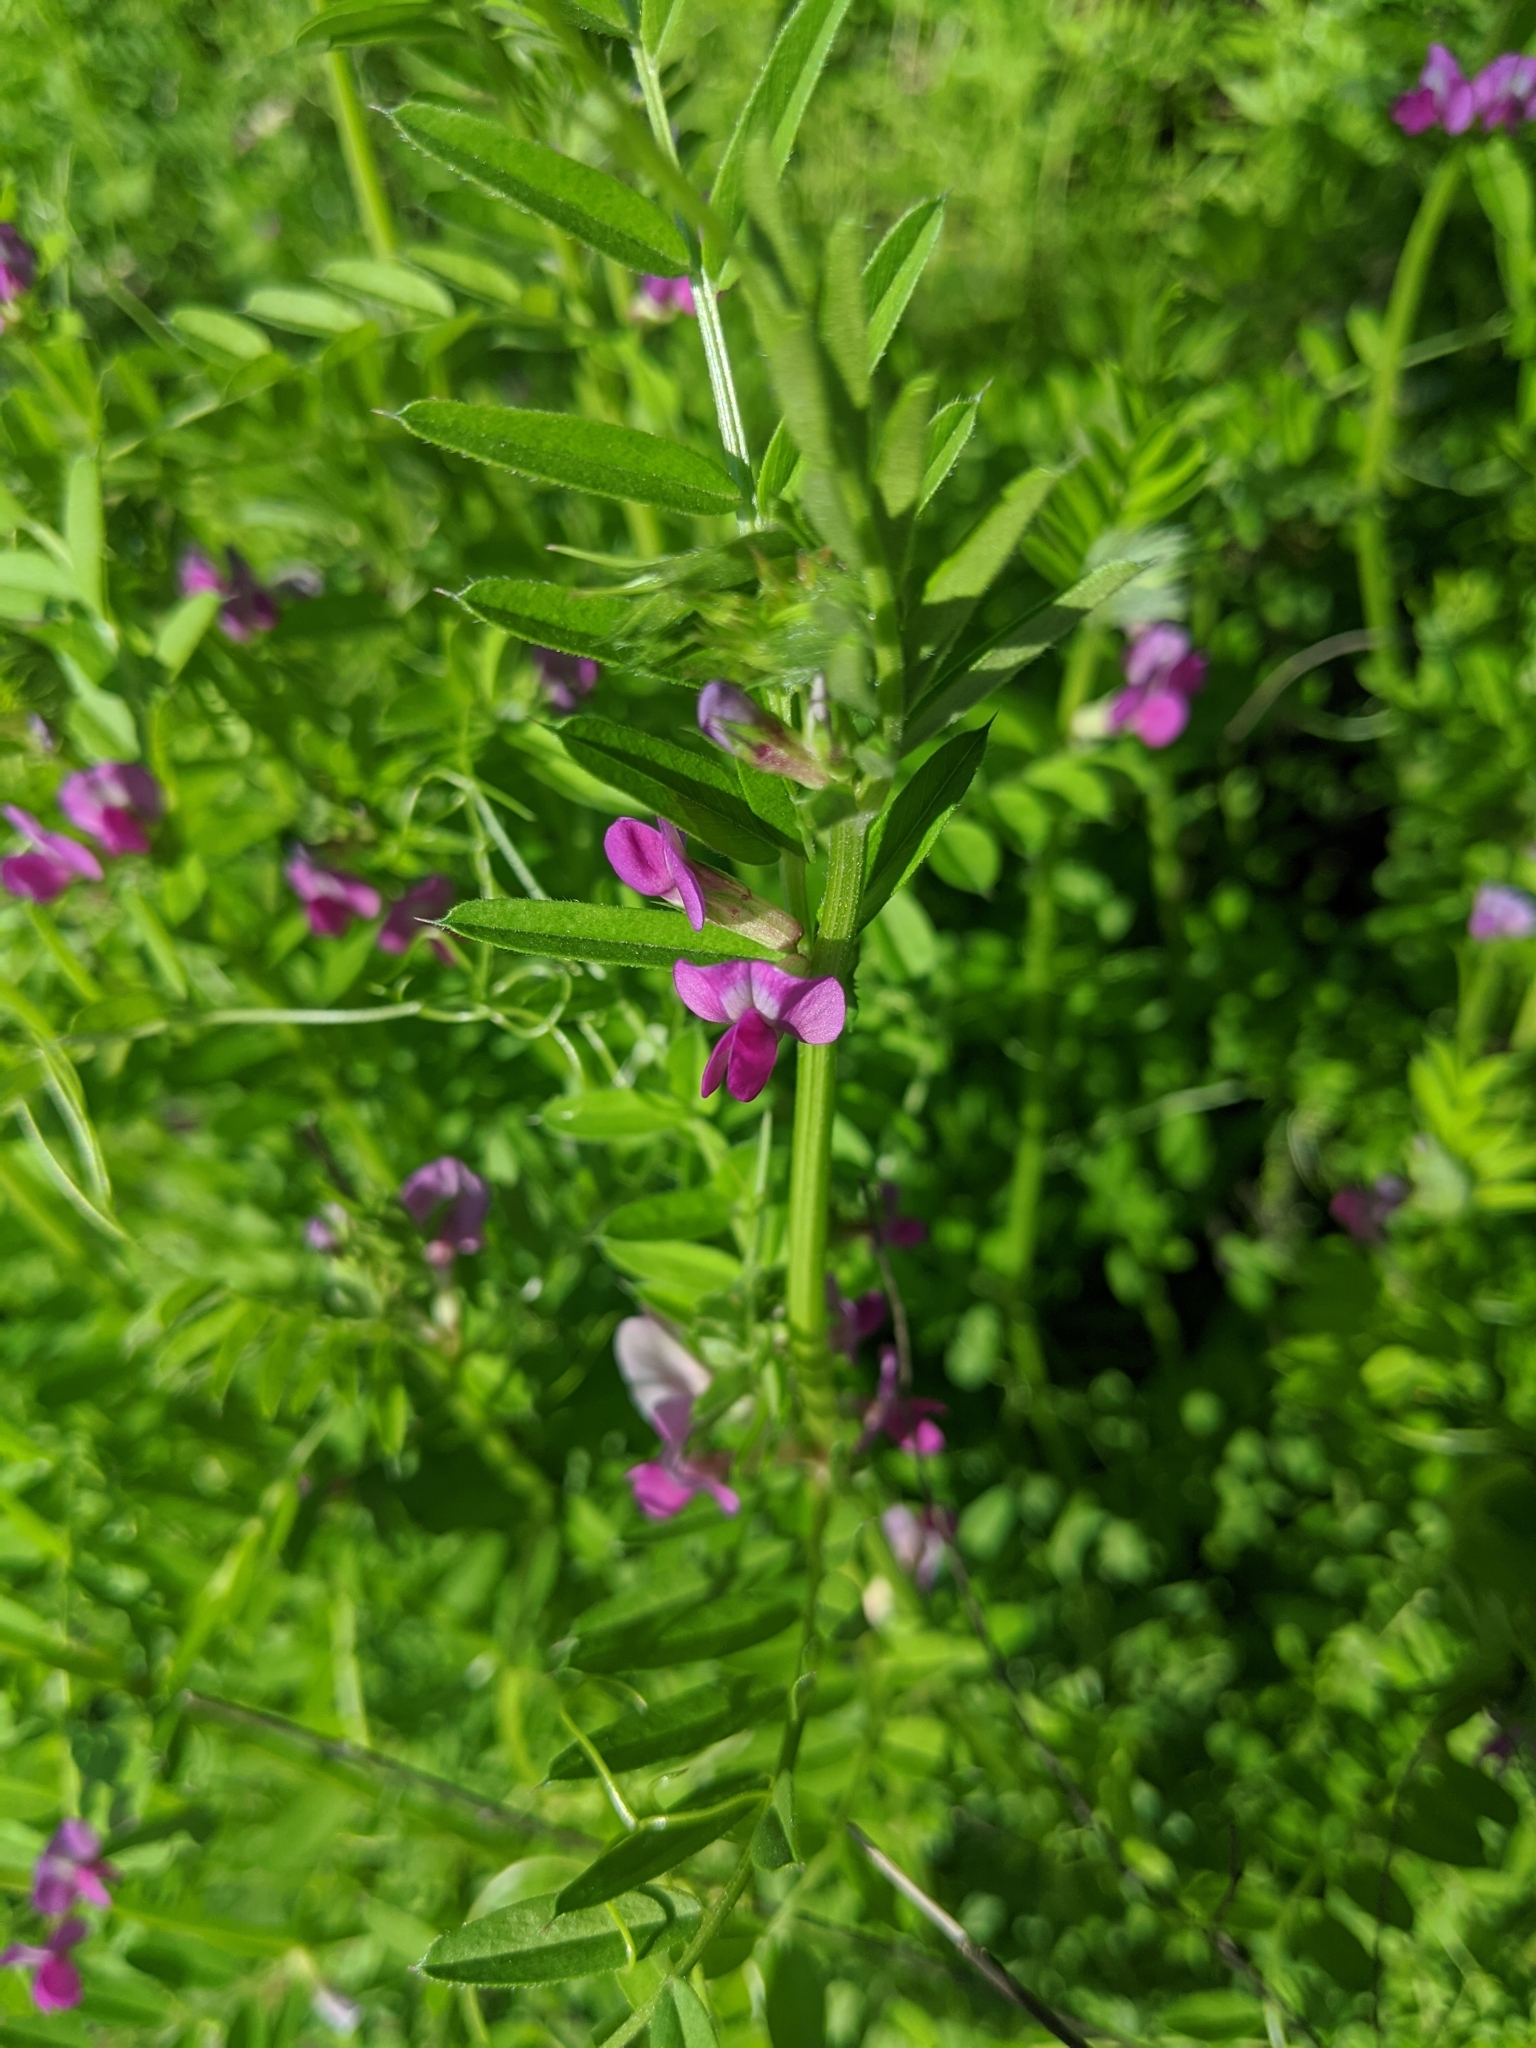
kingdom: Plantae
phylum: Tracheophyta
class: Magnoliopsida
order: Fabales
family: Fabaceae
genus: Vicia
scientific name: Vicia sativa
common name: Garden vetch
